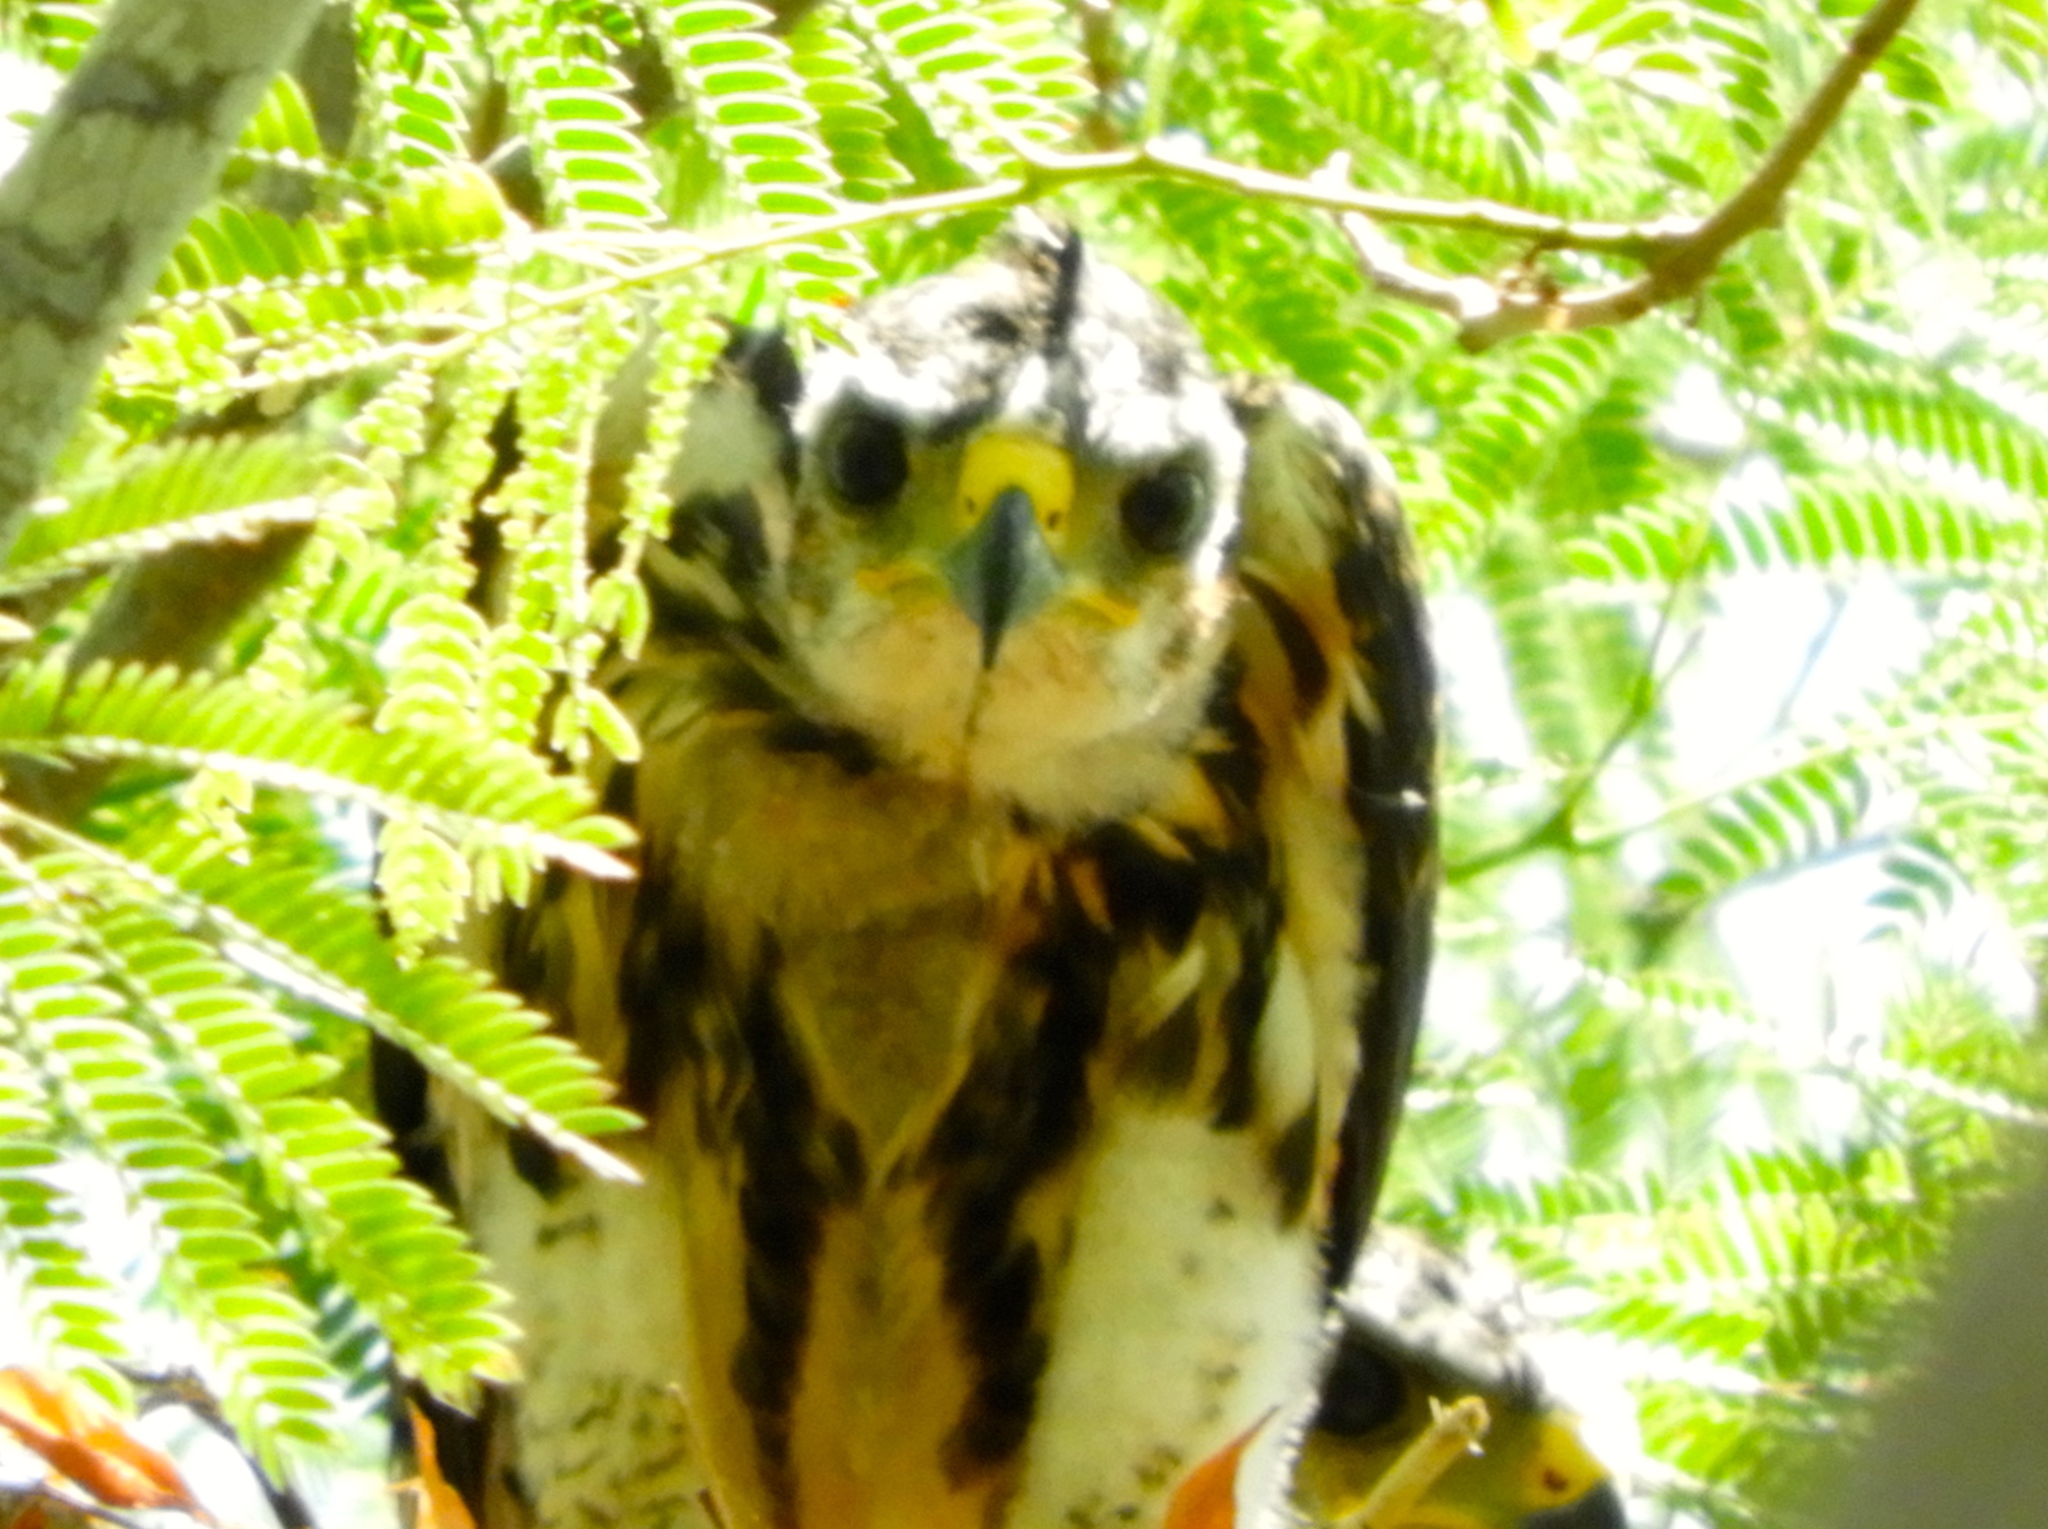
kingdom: Animalia
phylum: Chordata
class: Aves
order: Accipitriformes
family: Accipitridae
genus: Buteo
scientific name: Buteo nitidus
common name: Grey-lined hawk
